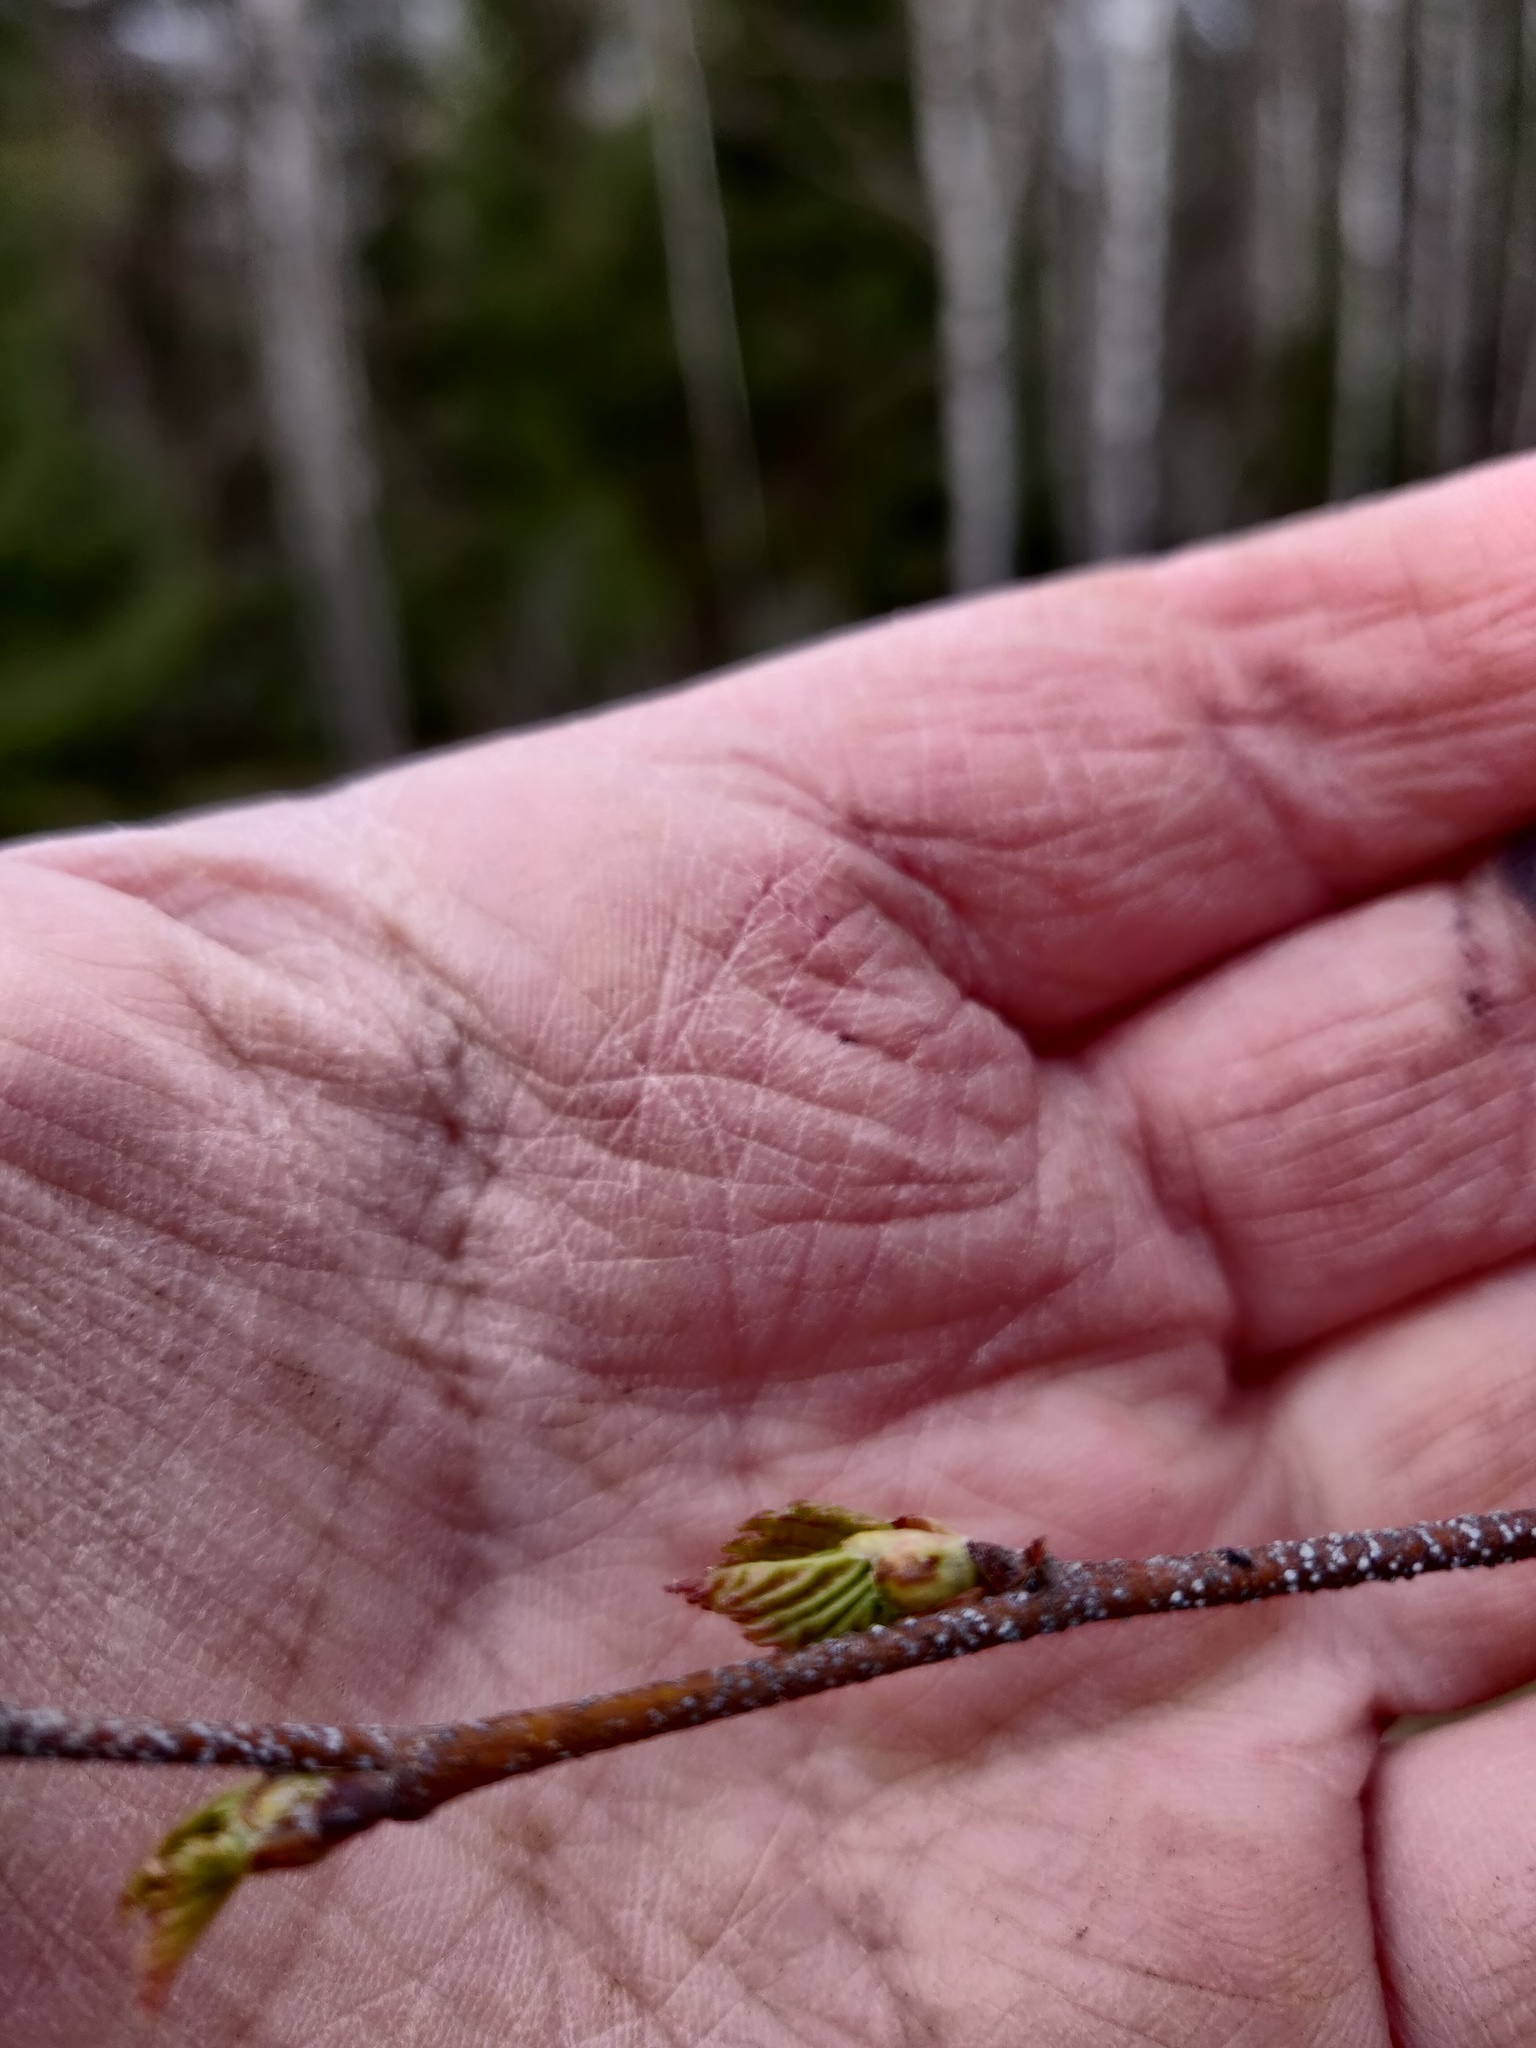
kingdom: Plantae
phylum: Tracheophyta
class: Magnoliopsida
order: Fagales
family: Betulaceae
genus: Betula
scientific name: Betula pendula
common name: Silver birch
